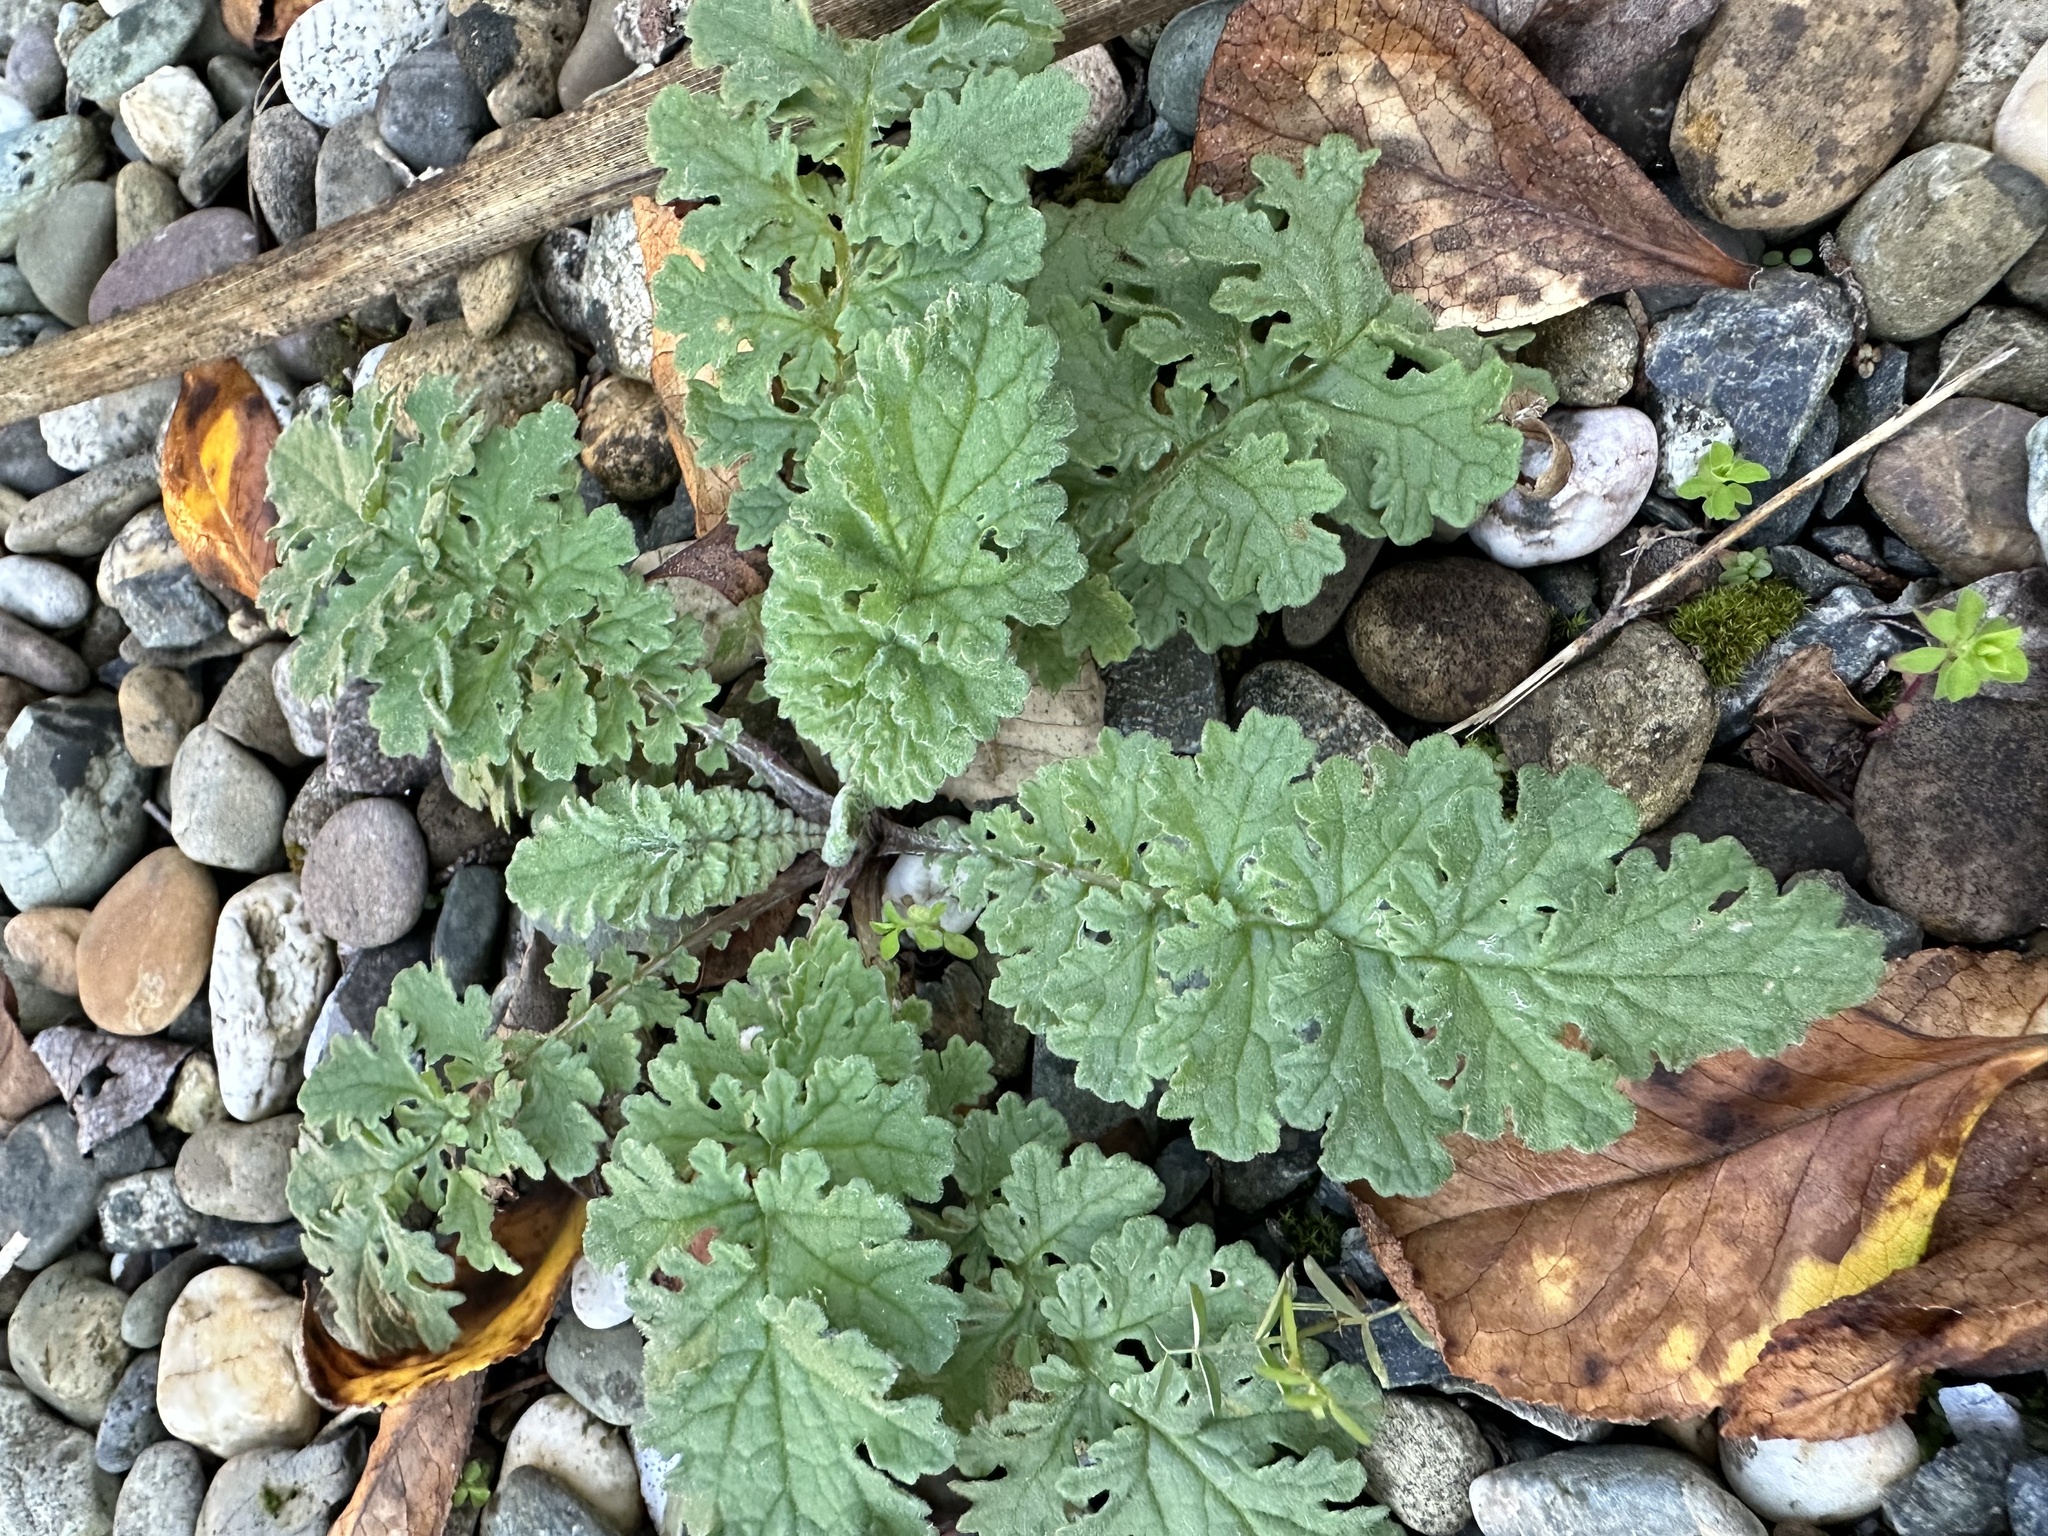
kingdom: Plantae
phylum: Tracheophyta
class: Magnoliopsida
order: Asterales
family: Asteraceae
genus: Jacobaea
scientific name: Jacobaea vulgaris
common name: Stinking willie
